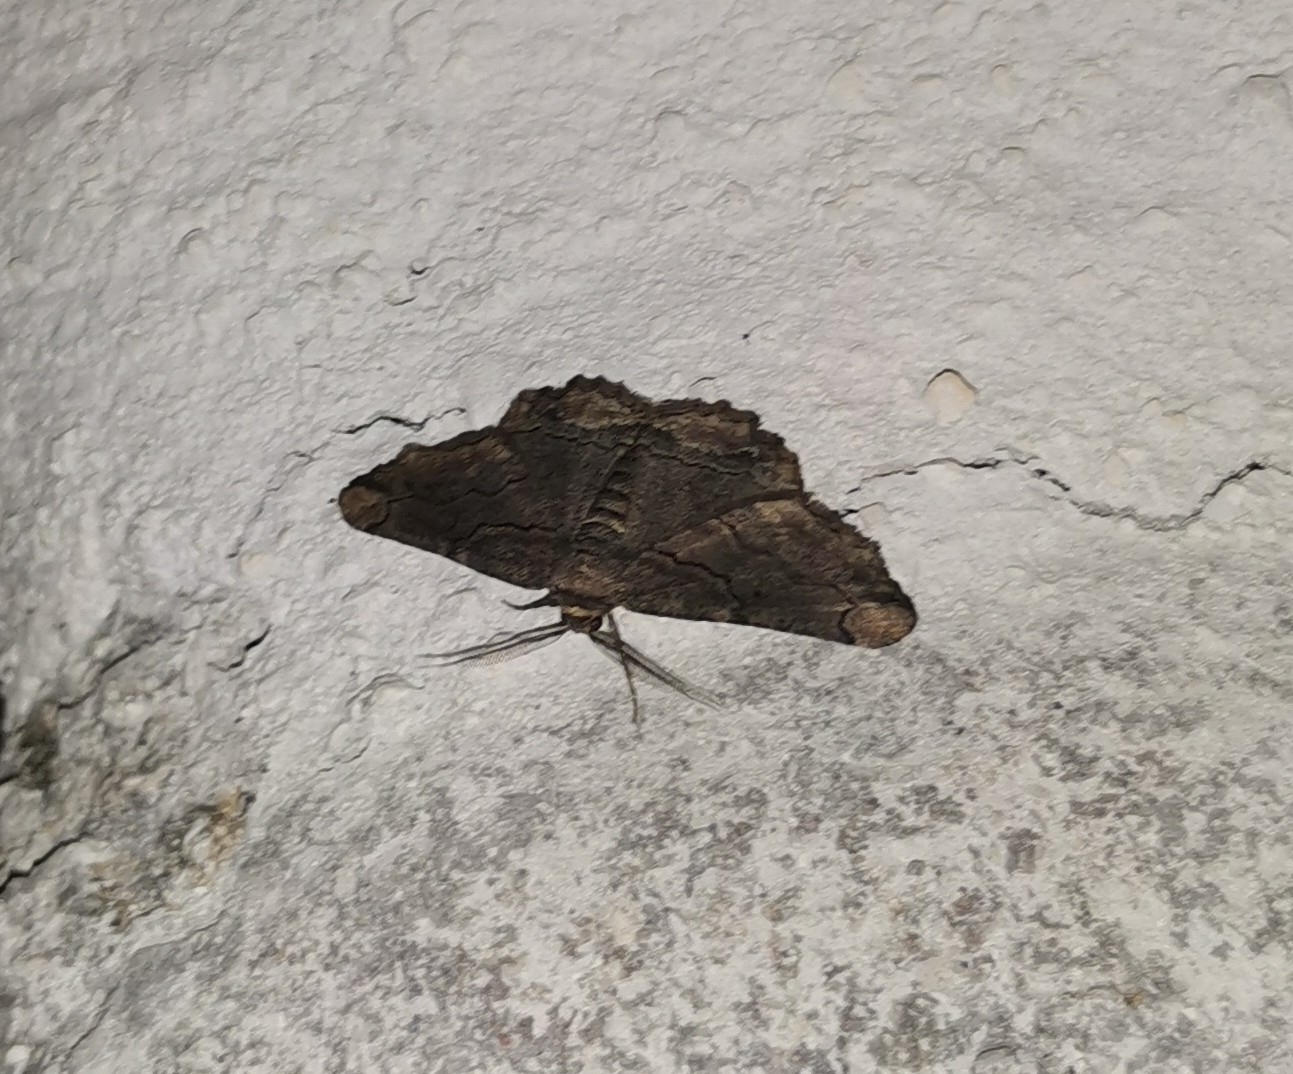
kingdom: Animalia
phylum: Arthropoda
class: Insecta
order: Lepidoptera
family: Geometridae
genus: Menophra
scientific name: Menophra japygiaria
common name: Brassy waved umber
